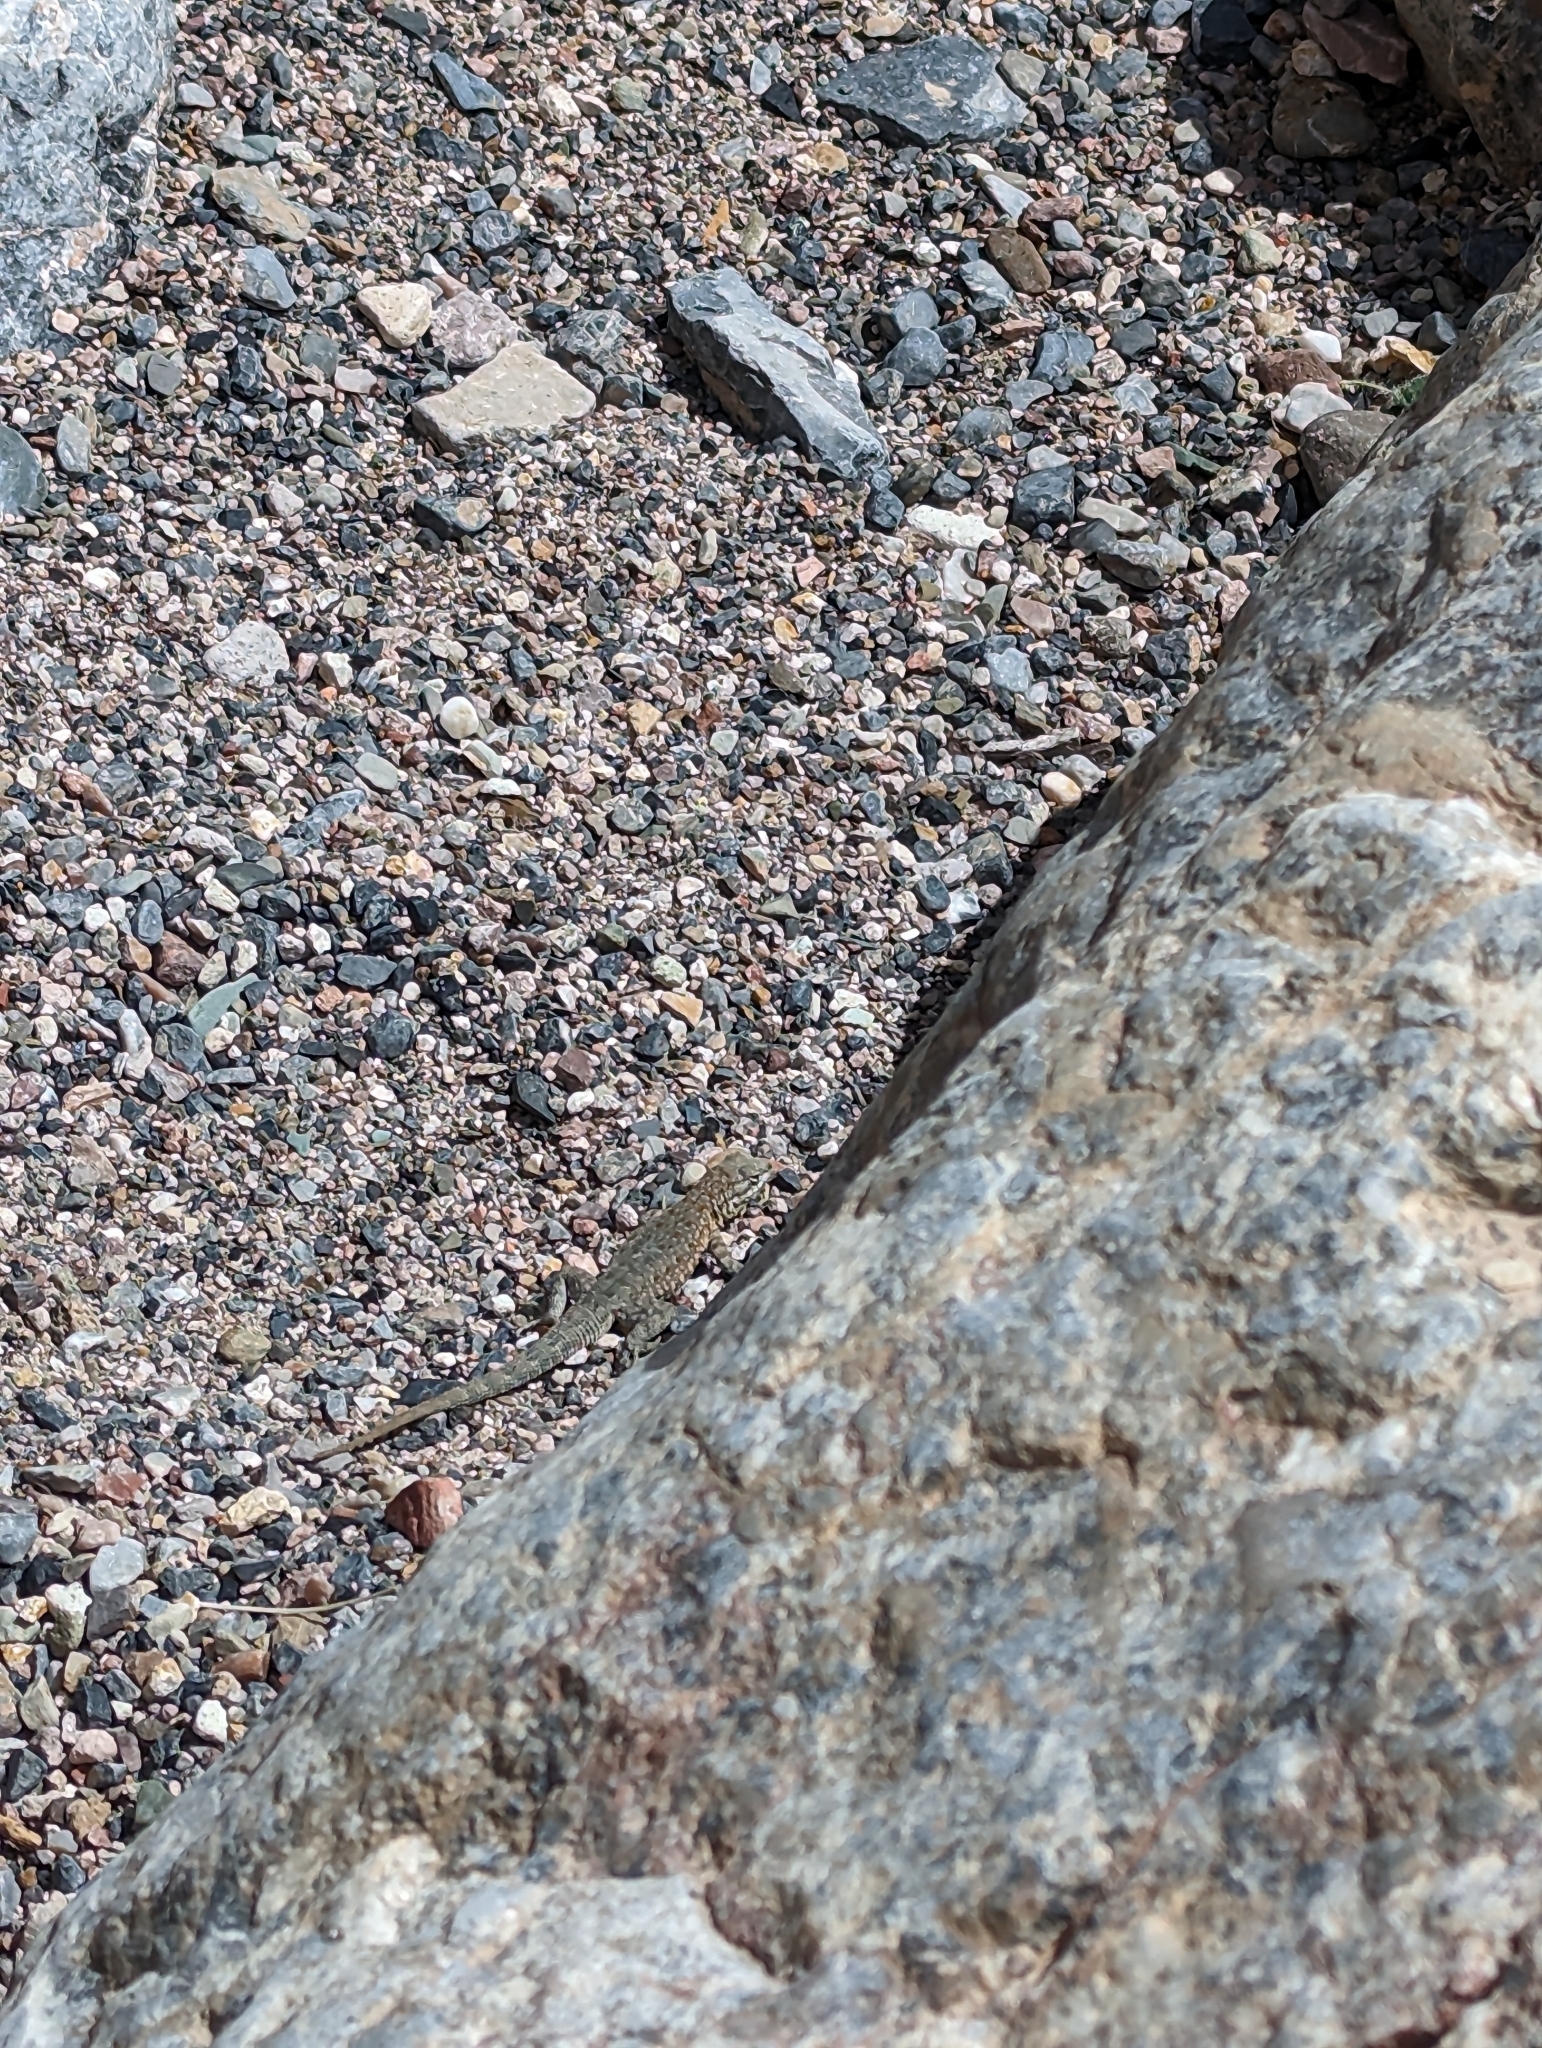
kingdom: Animalia
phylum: Chordata
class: Squamata
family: Phrynosomatidae
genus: Uta
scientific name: Uta stansburiana
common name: Side-blotched lizard
